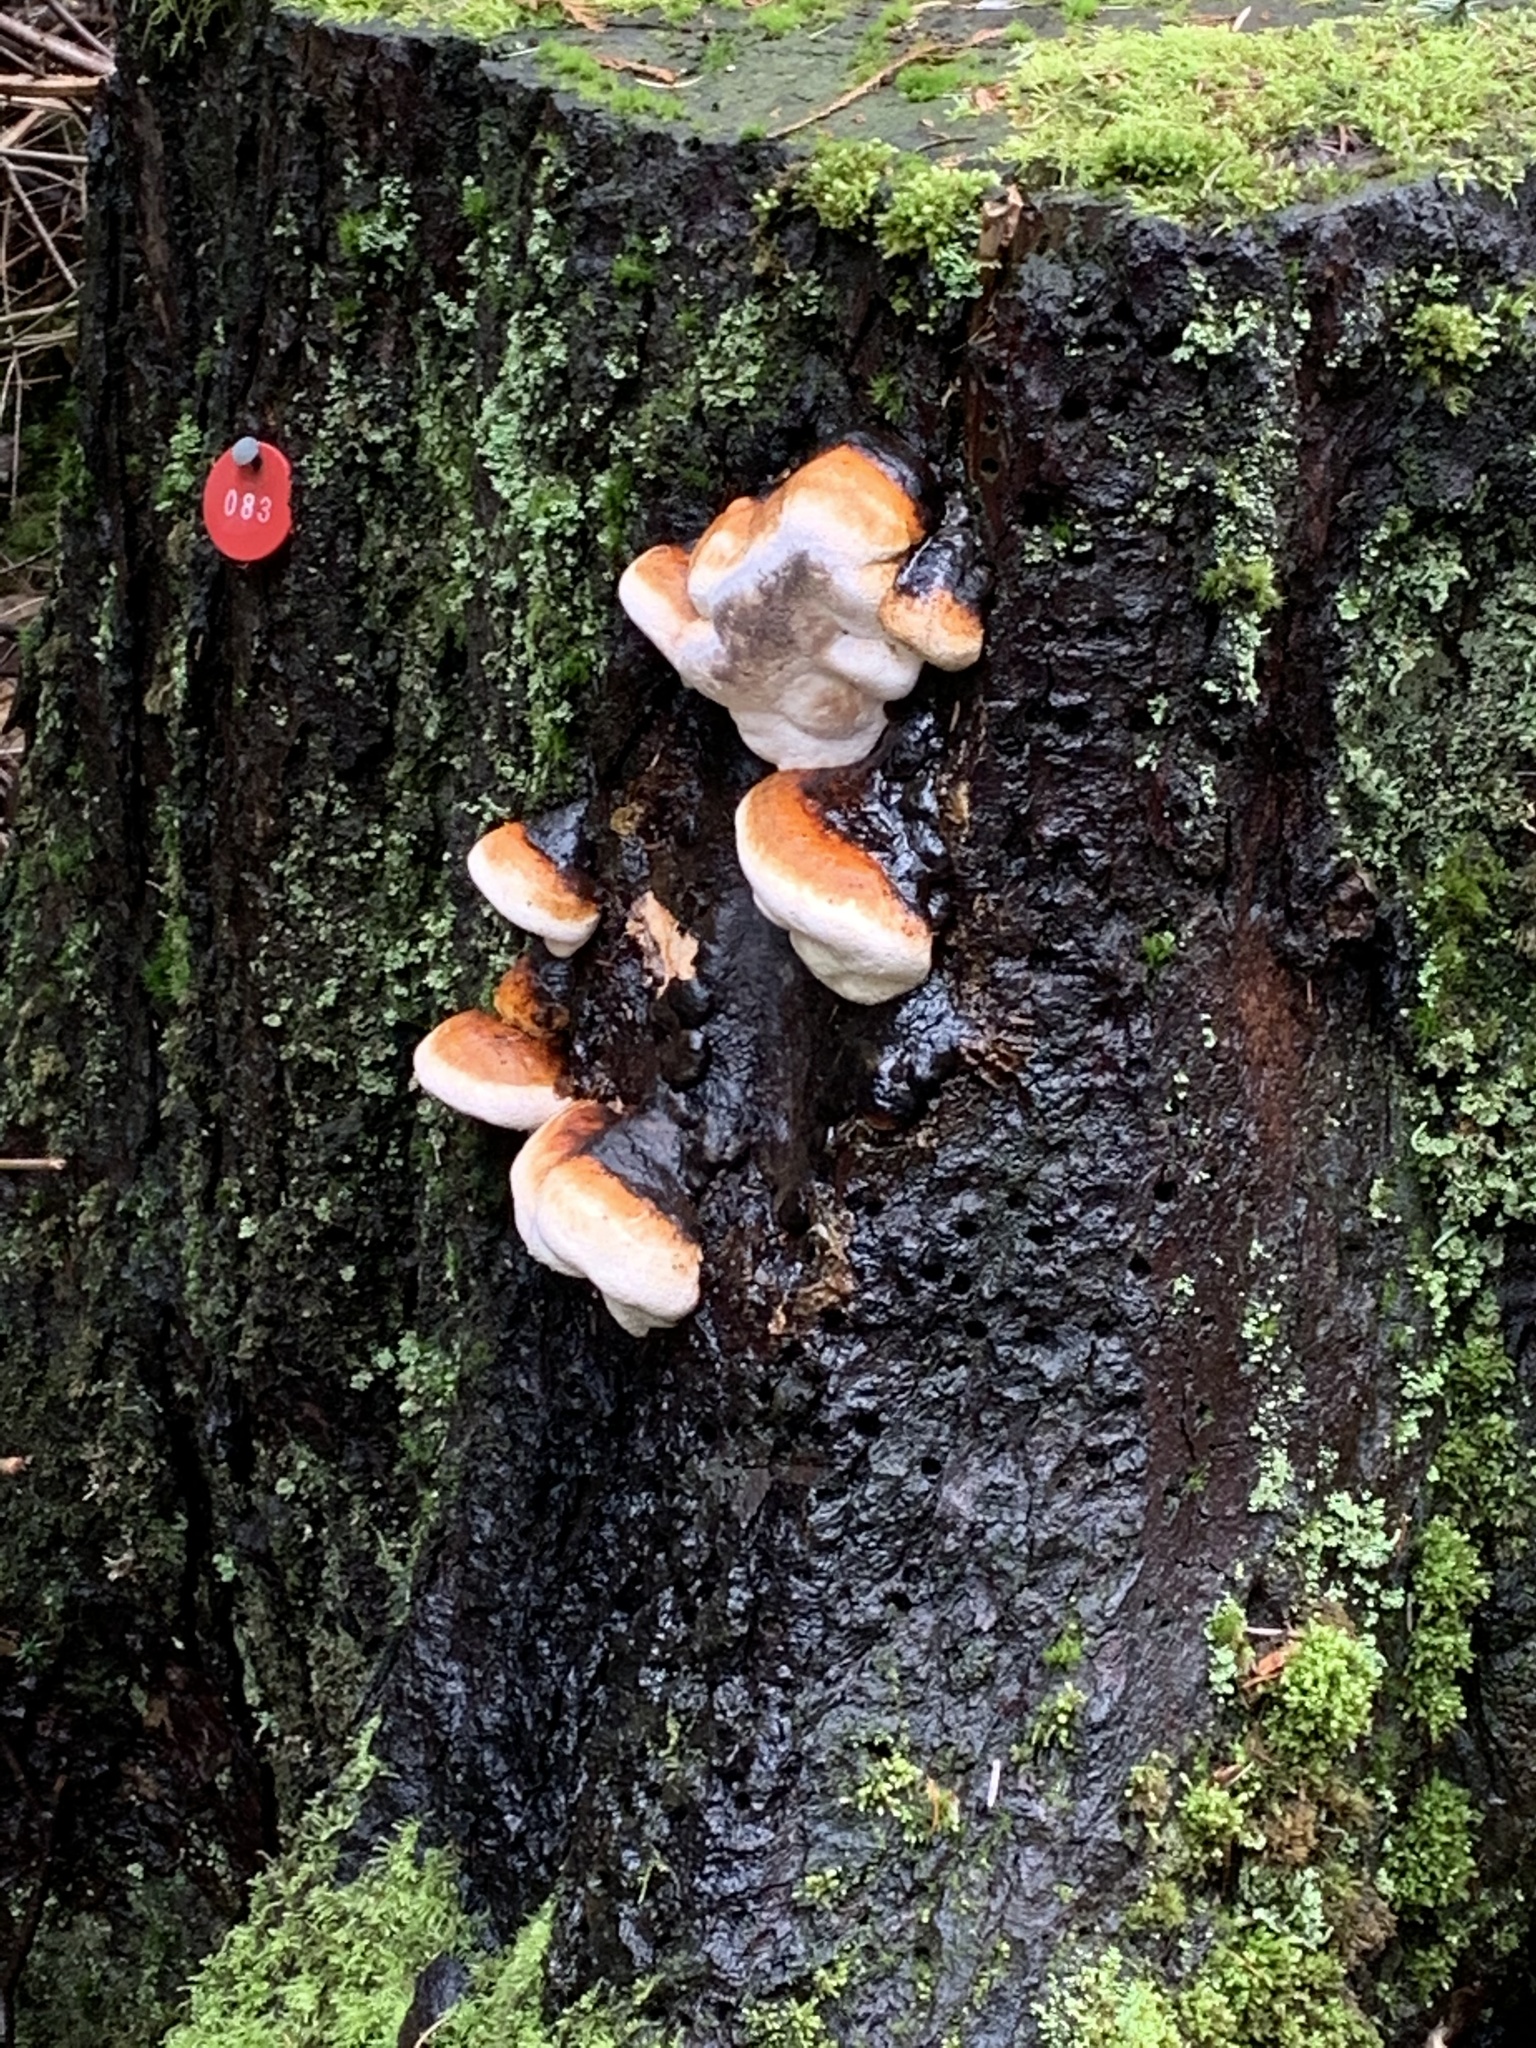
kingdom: Fungi
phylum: Basidiomycota
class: Agaricomycetes
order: Polyporales
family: Fomitopsidaceae
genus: Fomitopsis
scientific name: Fomitopsis mounceae
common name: Northern red belt
